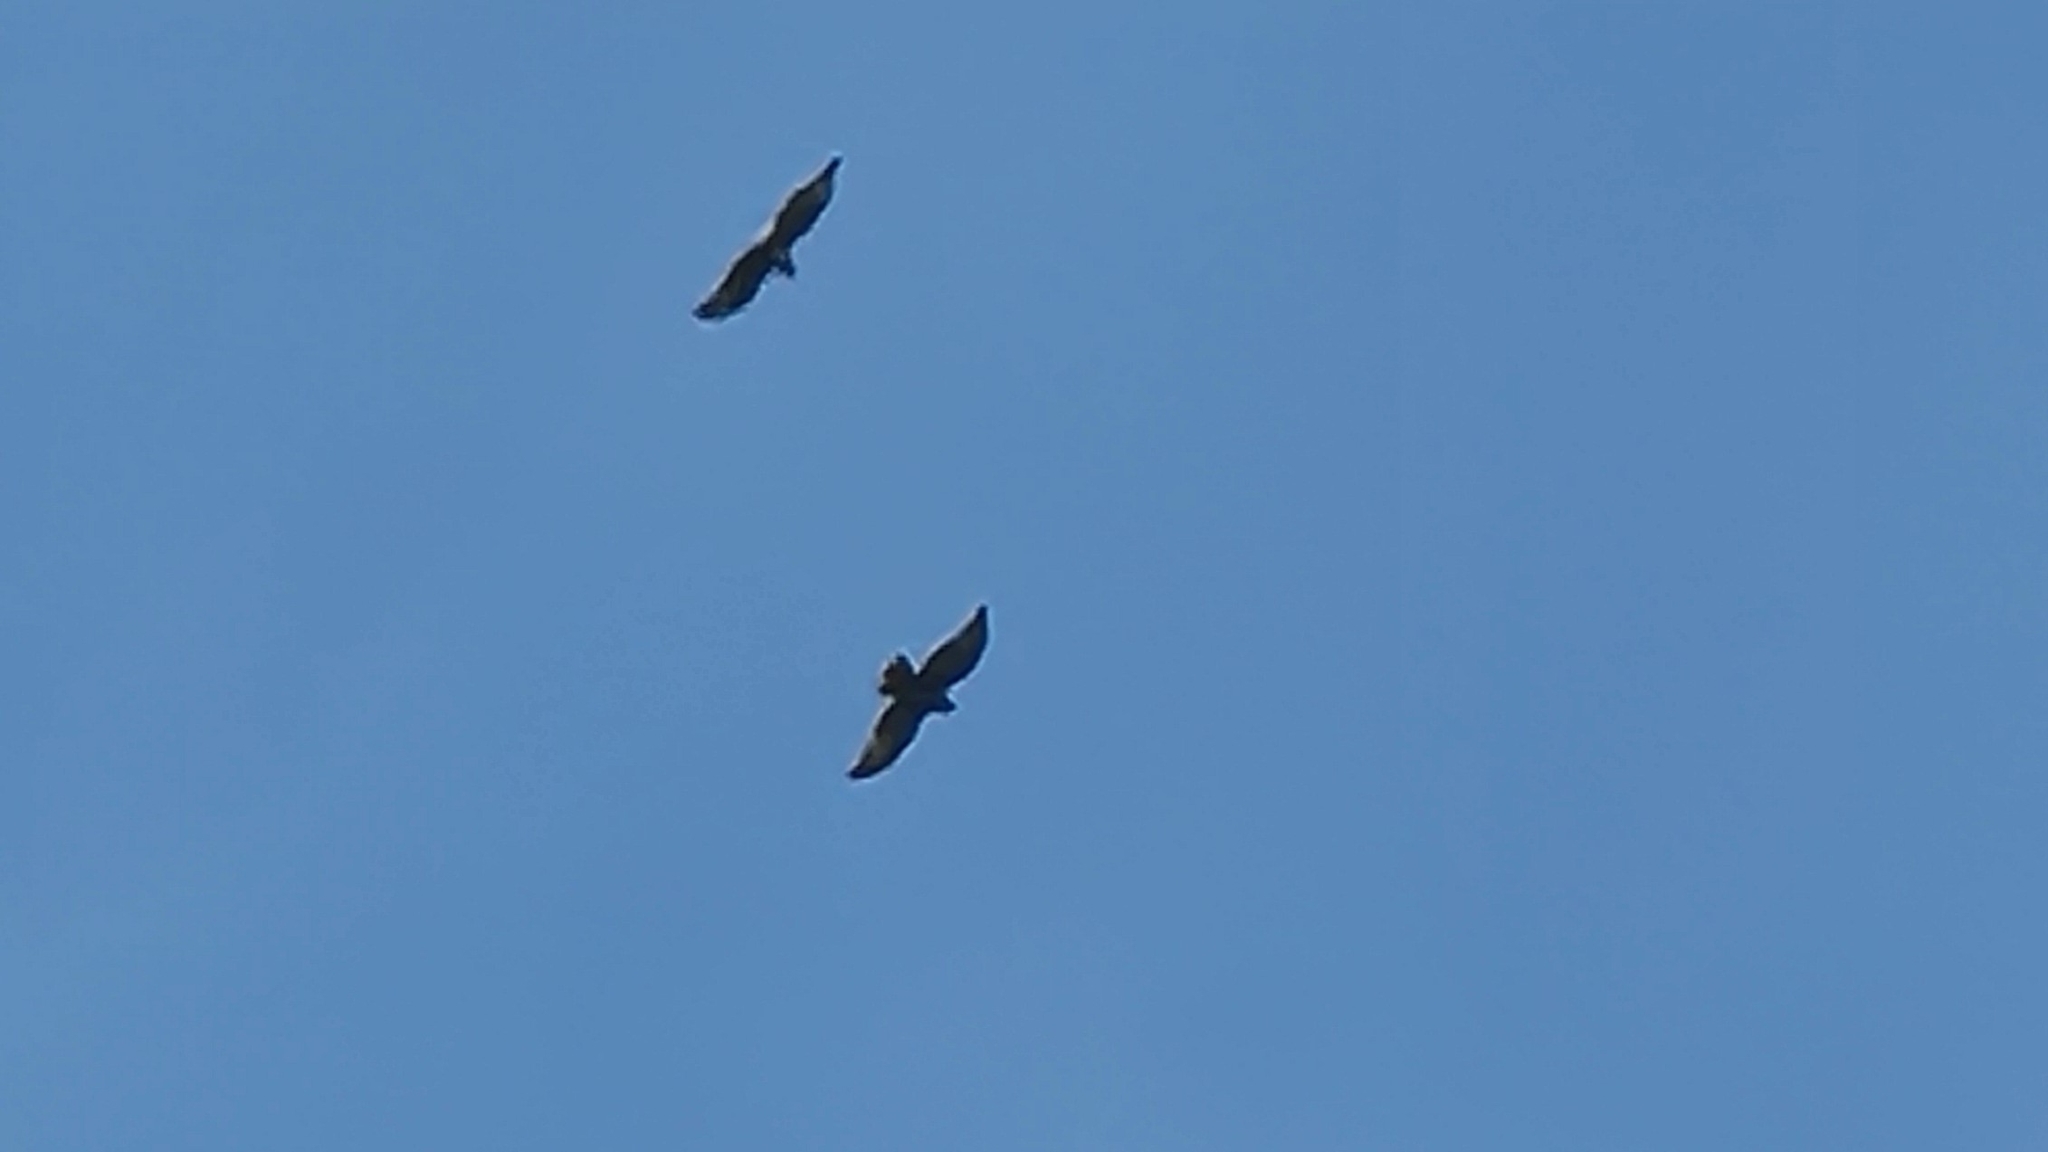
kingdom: Animalia
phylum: Chordata
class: Aves
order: Accipitriformes
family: Accipitridae
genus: Buteo
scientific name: Buteo buteo
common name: Common buzzard
